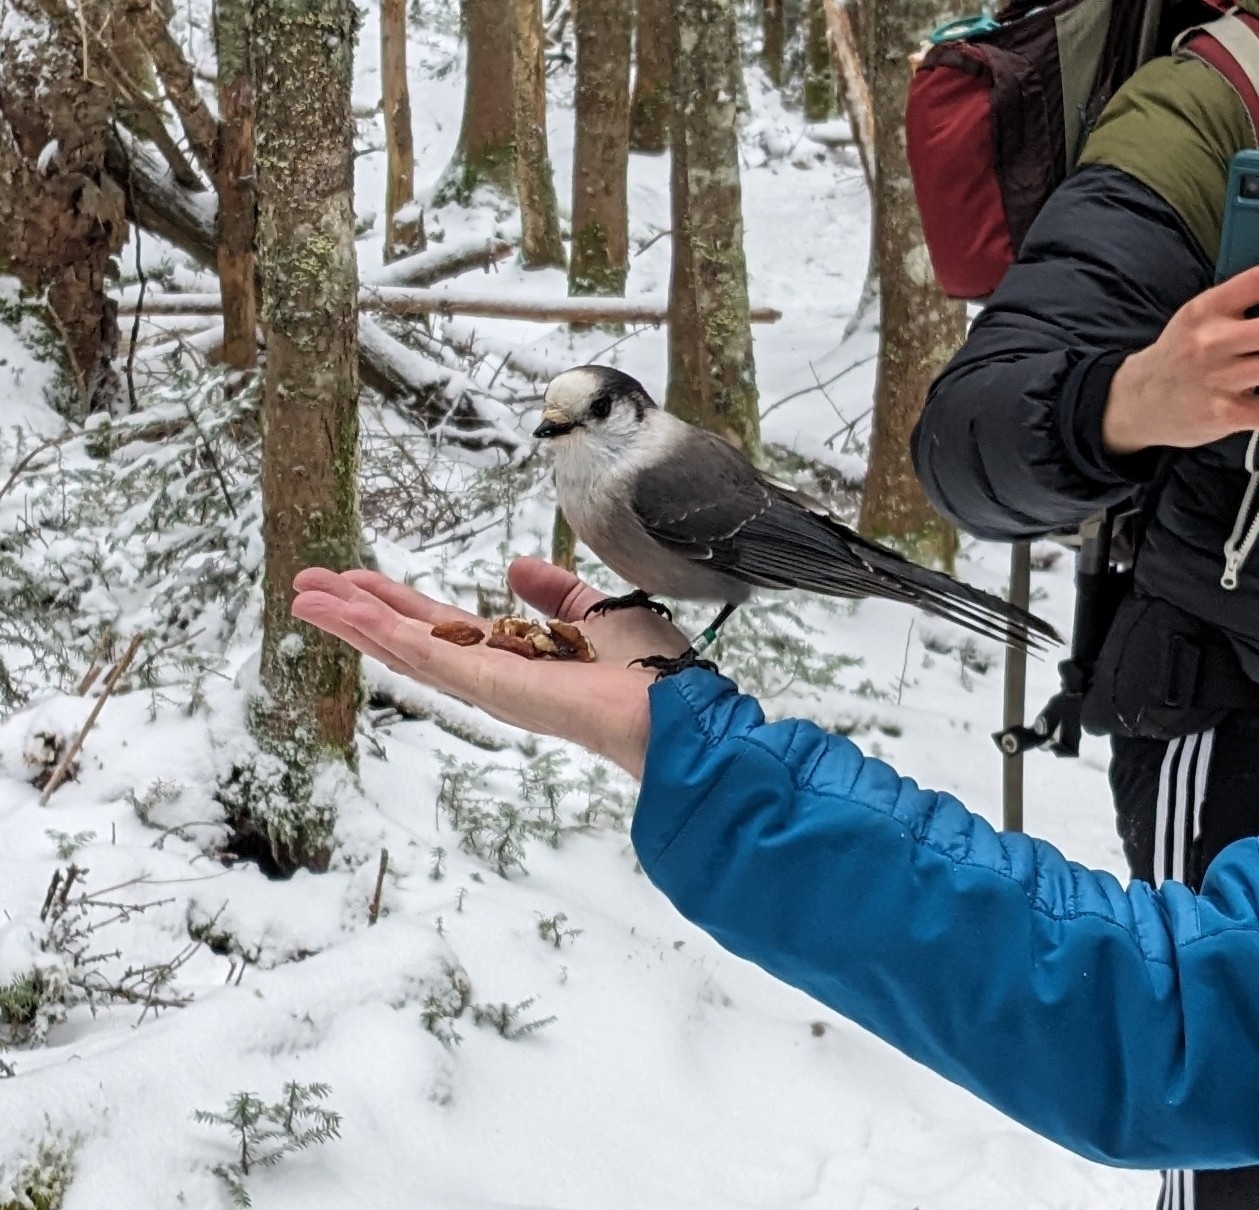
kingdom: Animalia
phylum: Chordata
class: Aves
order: Passeriformes
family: Corvidae
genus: Perisoreus
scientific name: Perisoreus canadensis
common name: Gray jay
